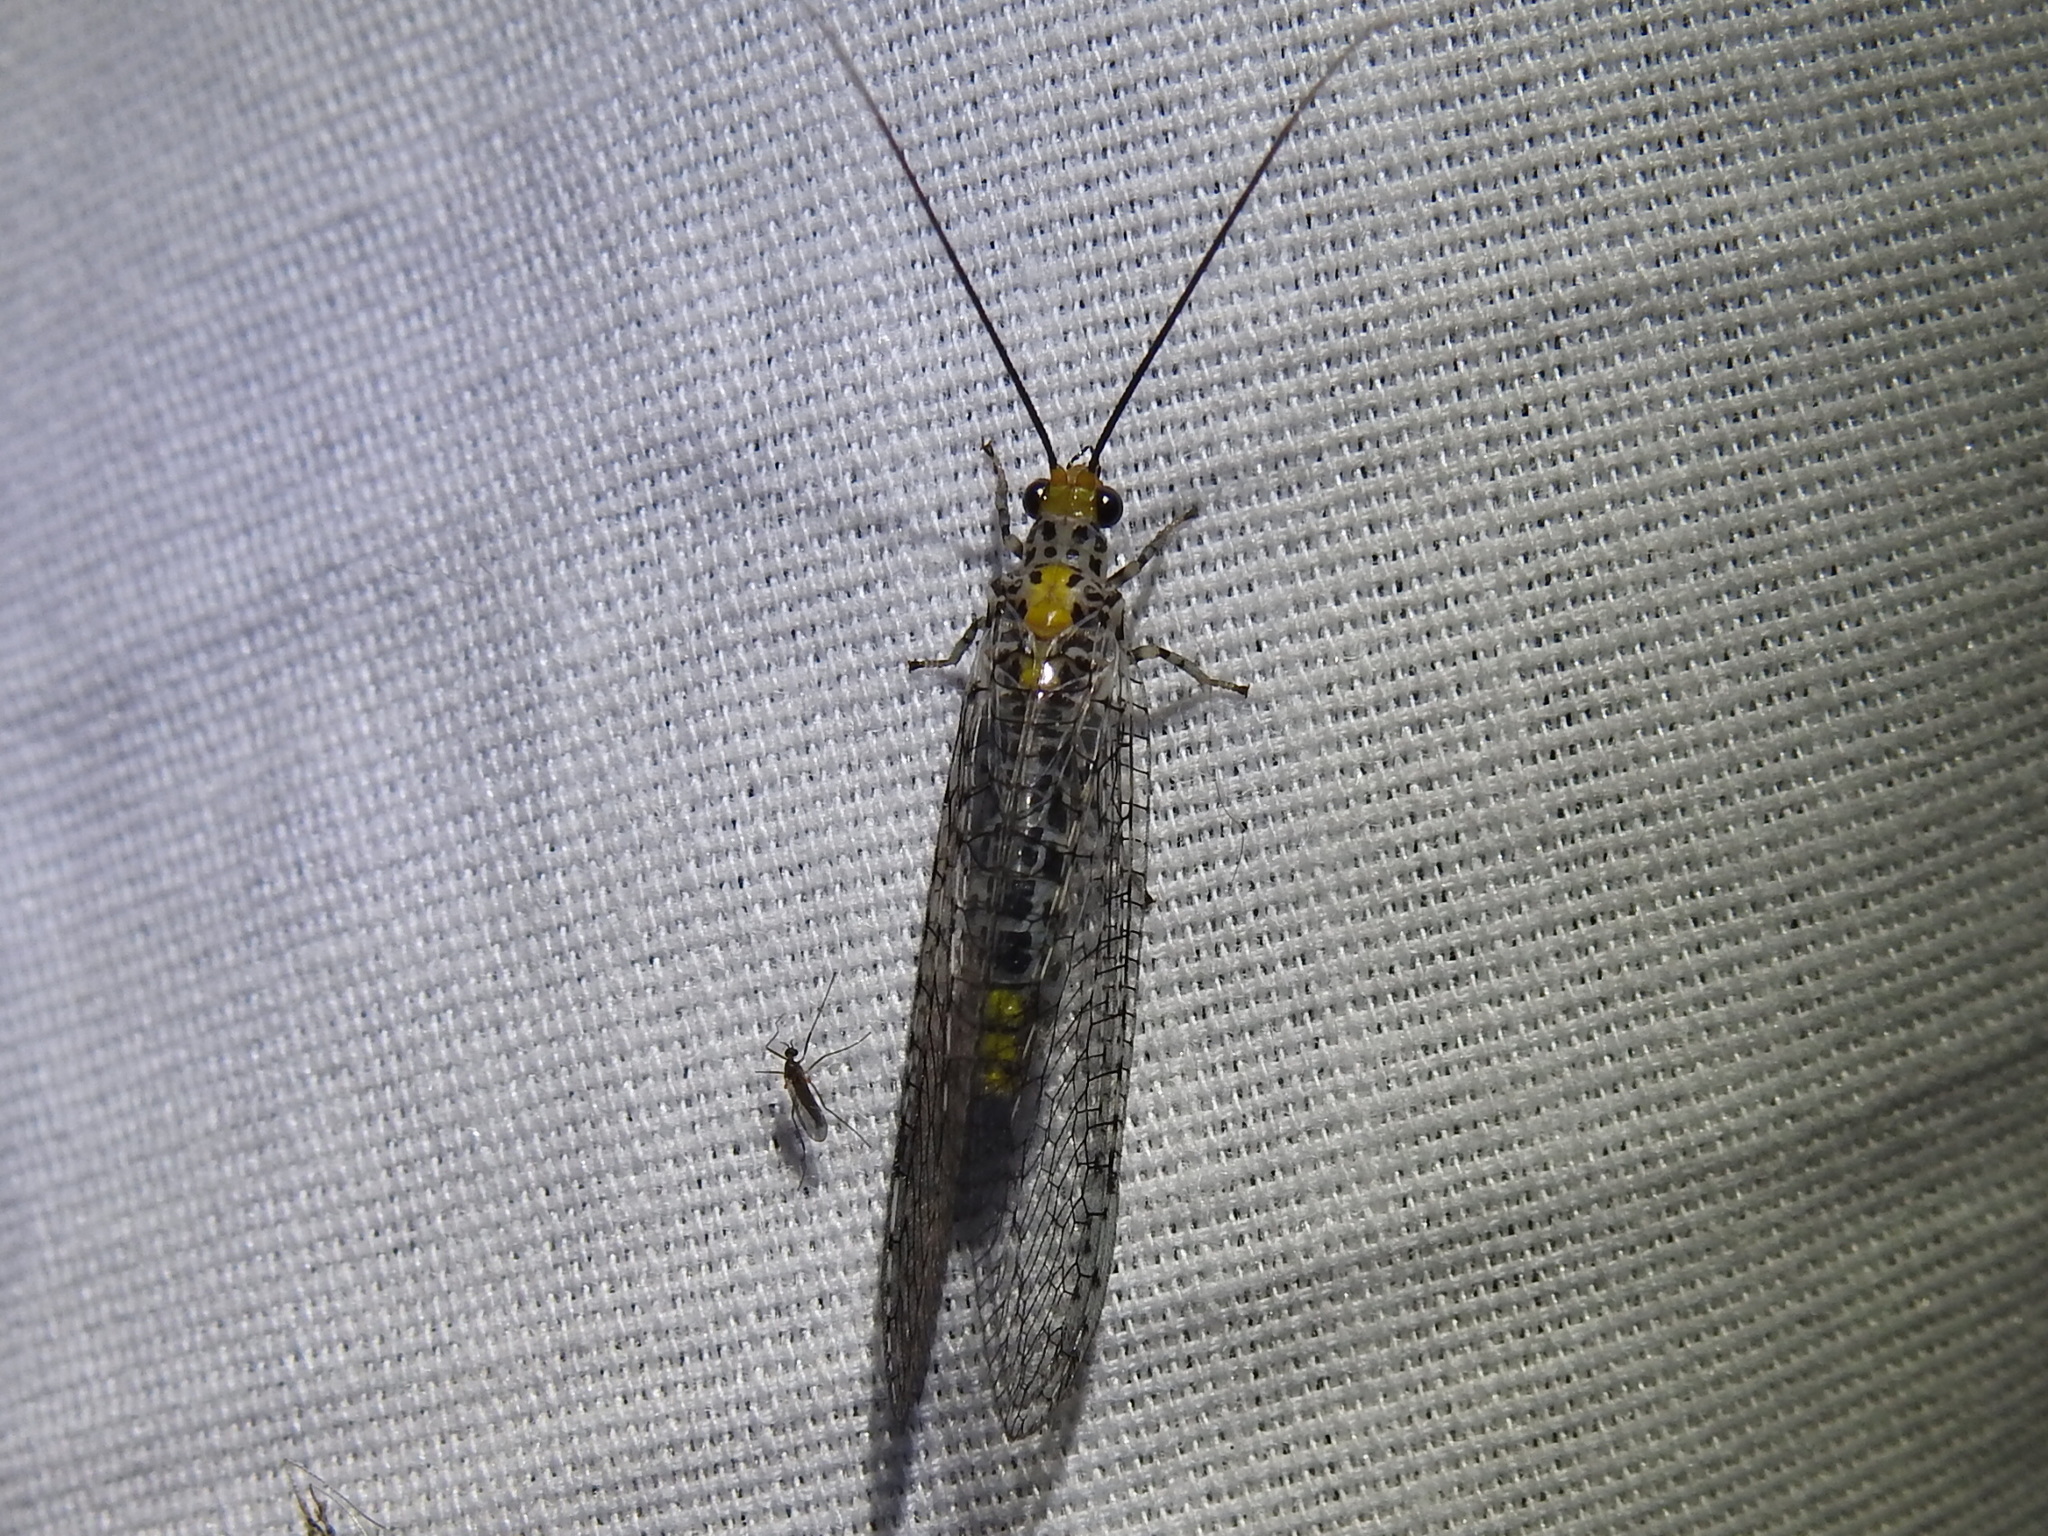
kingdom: Animalia
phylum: Arthropoda
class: Insecta
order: Neuroptera
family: Chrysopidae
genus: Abachrysa
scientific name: Abachrysa eureka
